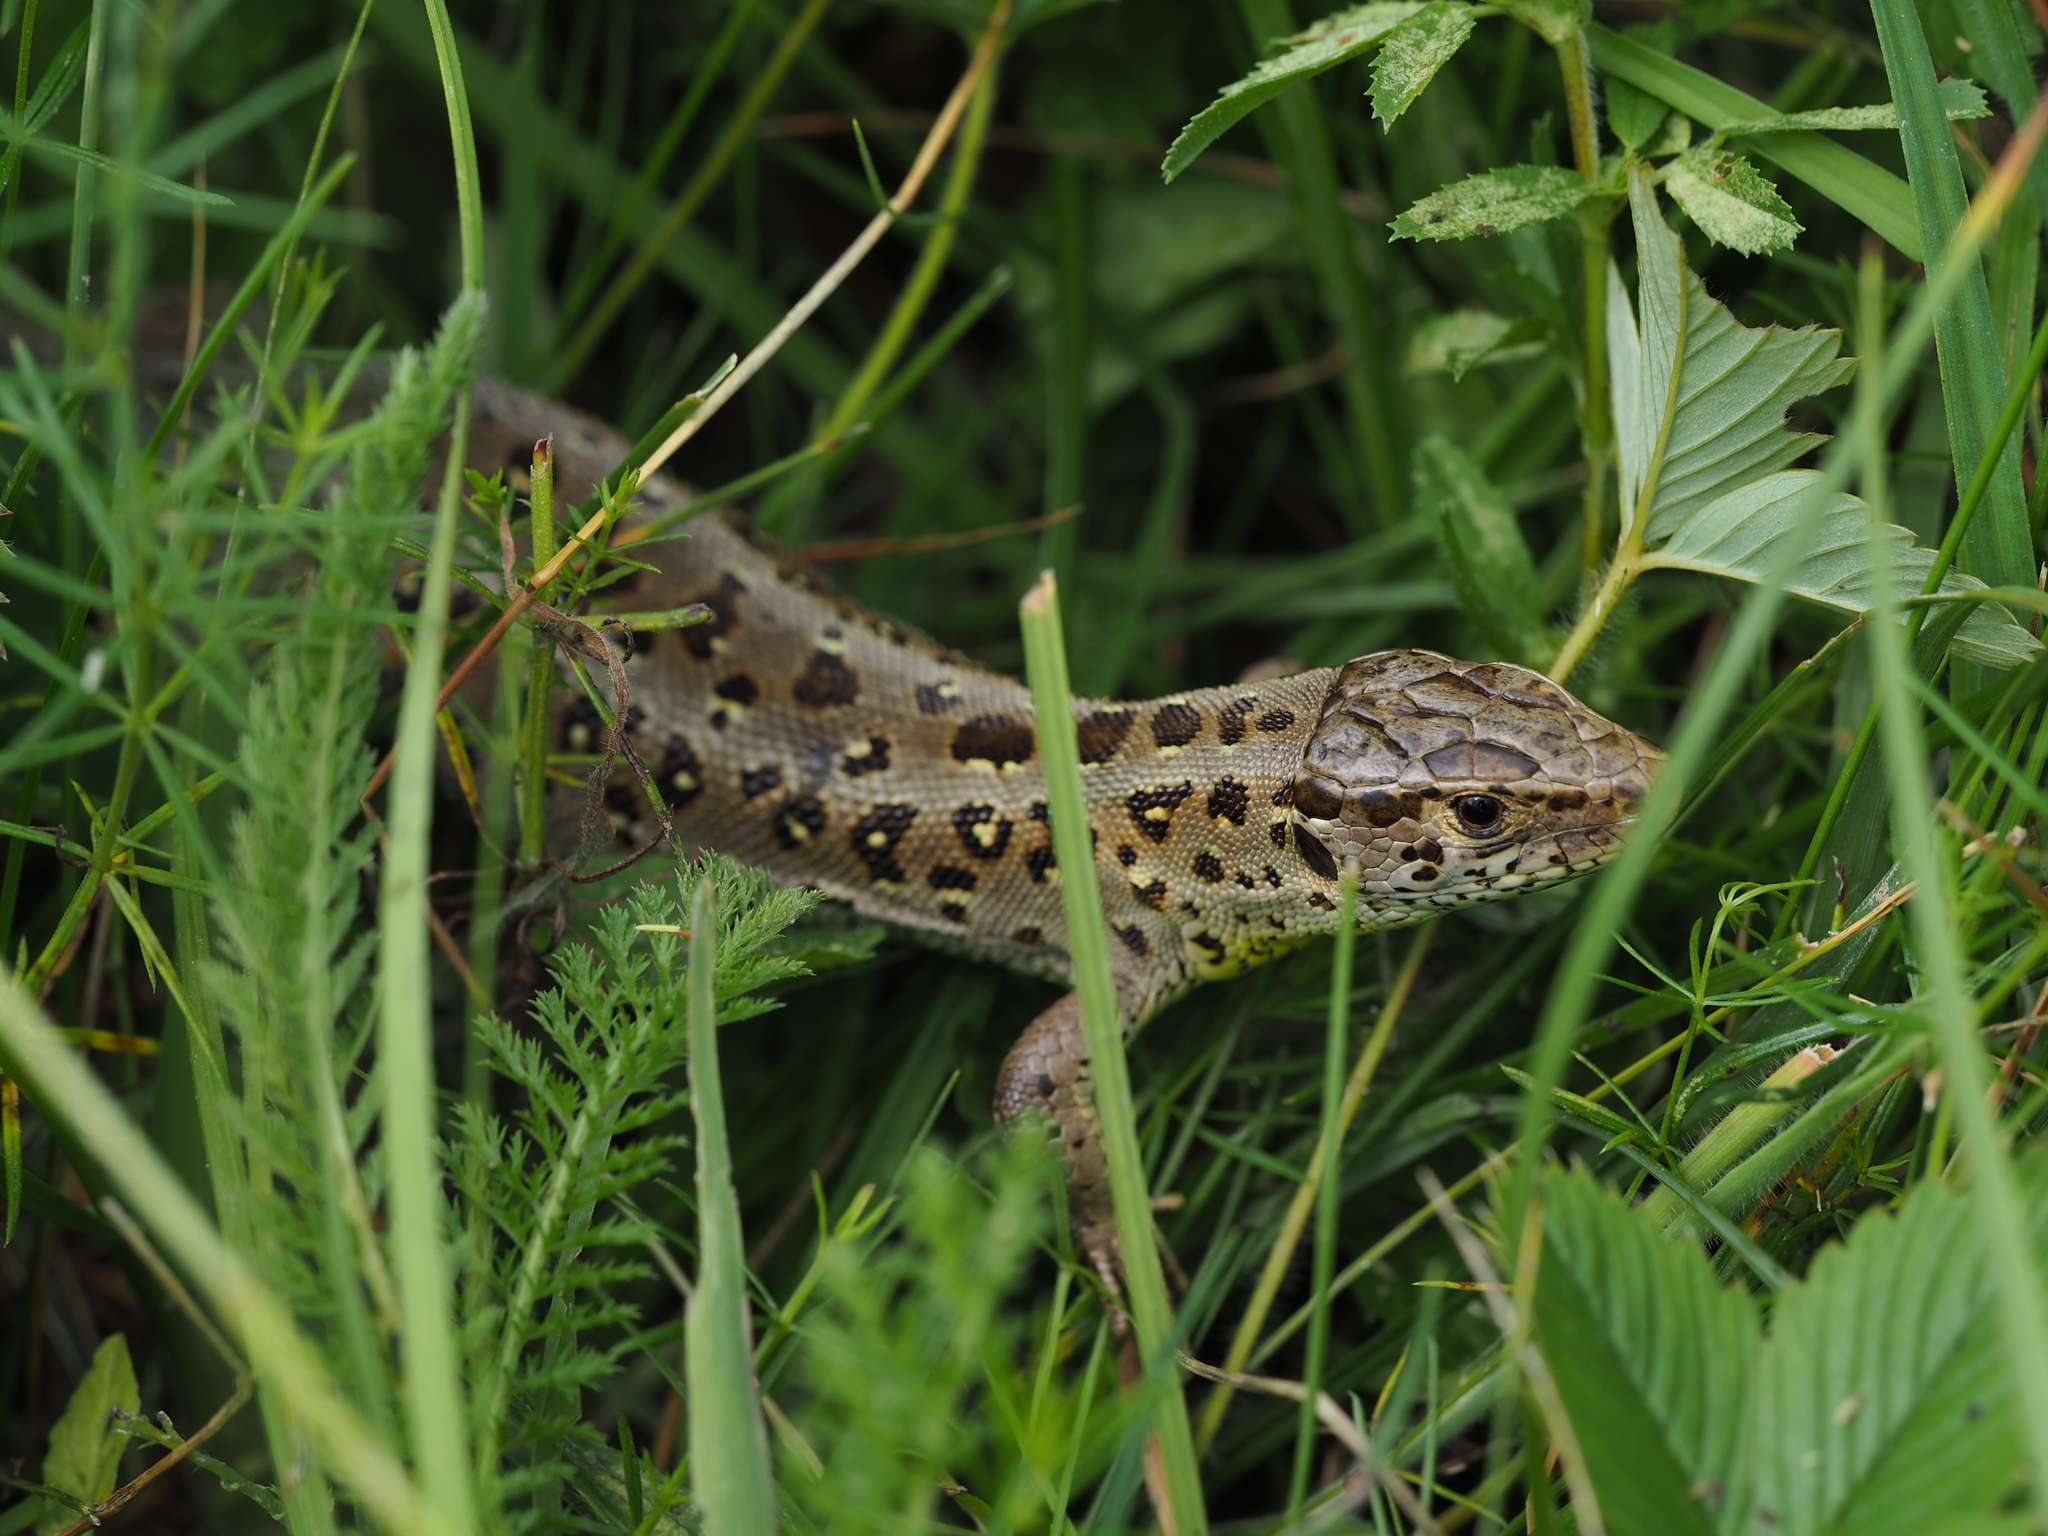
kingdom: Animalia
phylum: Chordata
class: Squamata
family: Lacertidae
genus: Lacerta
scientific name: Lacerta agilis
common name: Sand lizard
